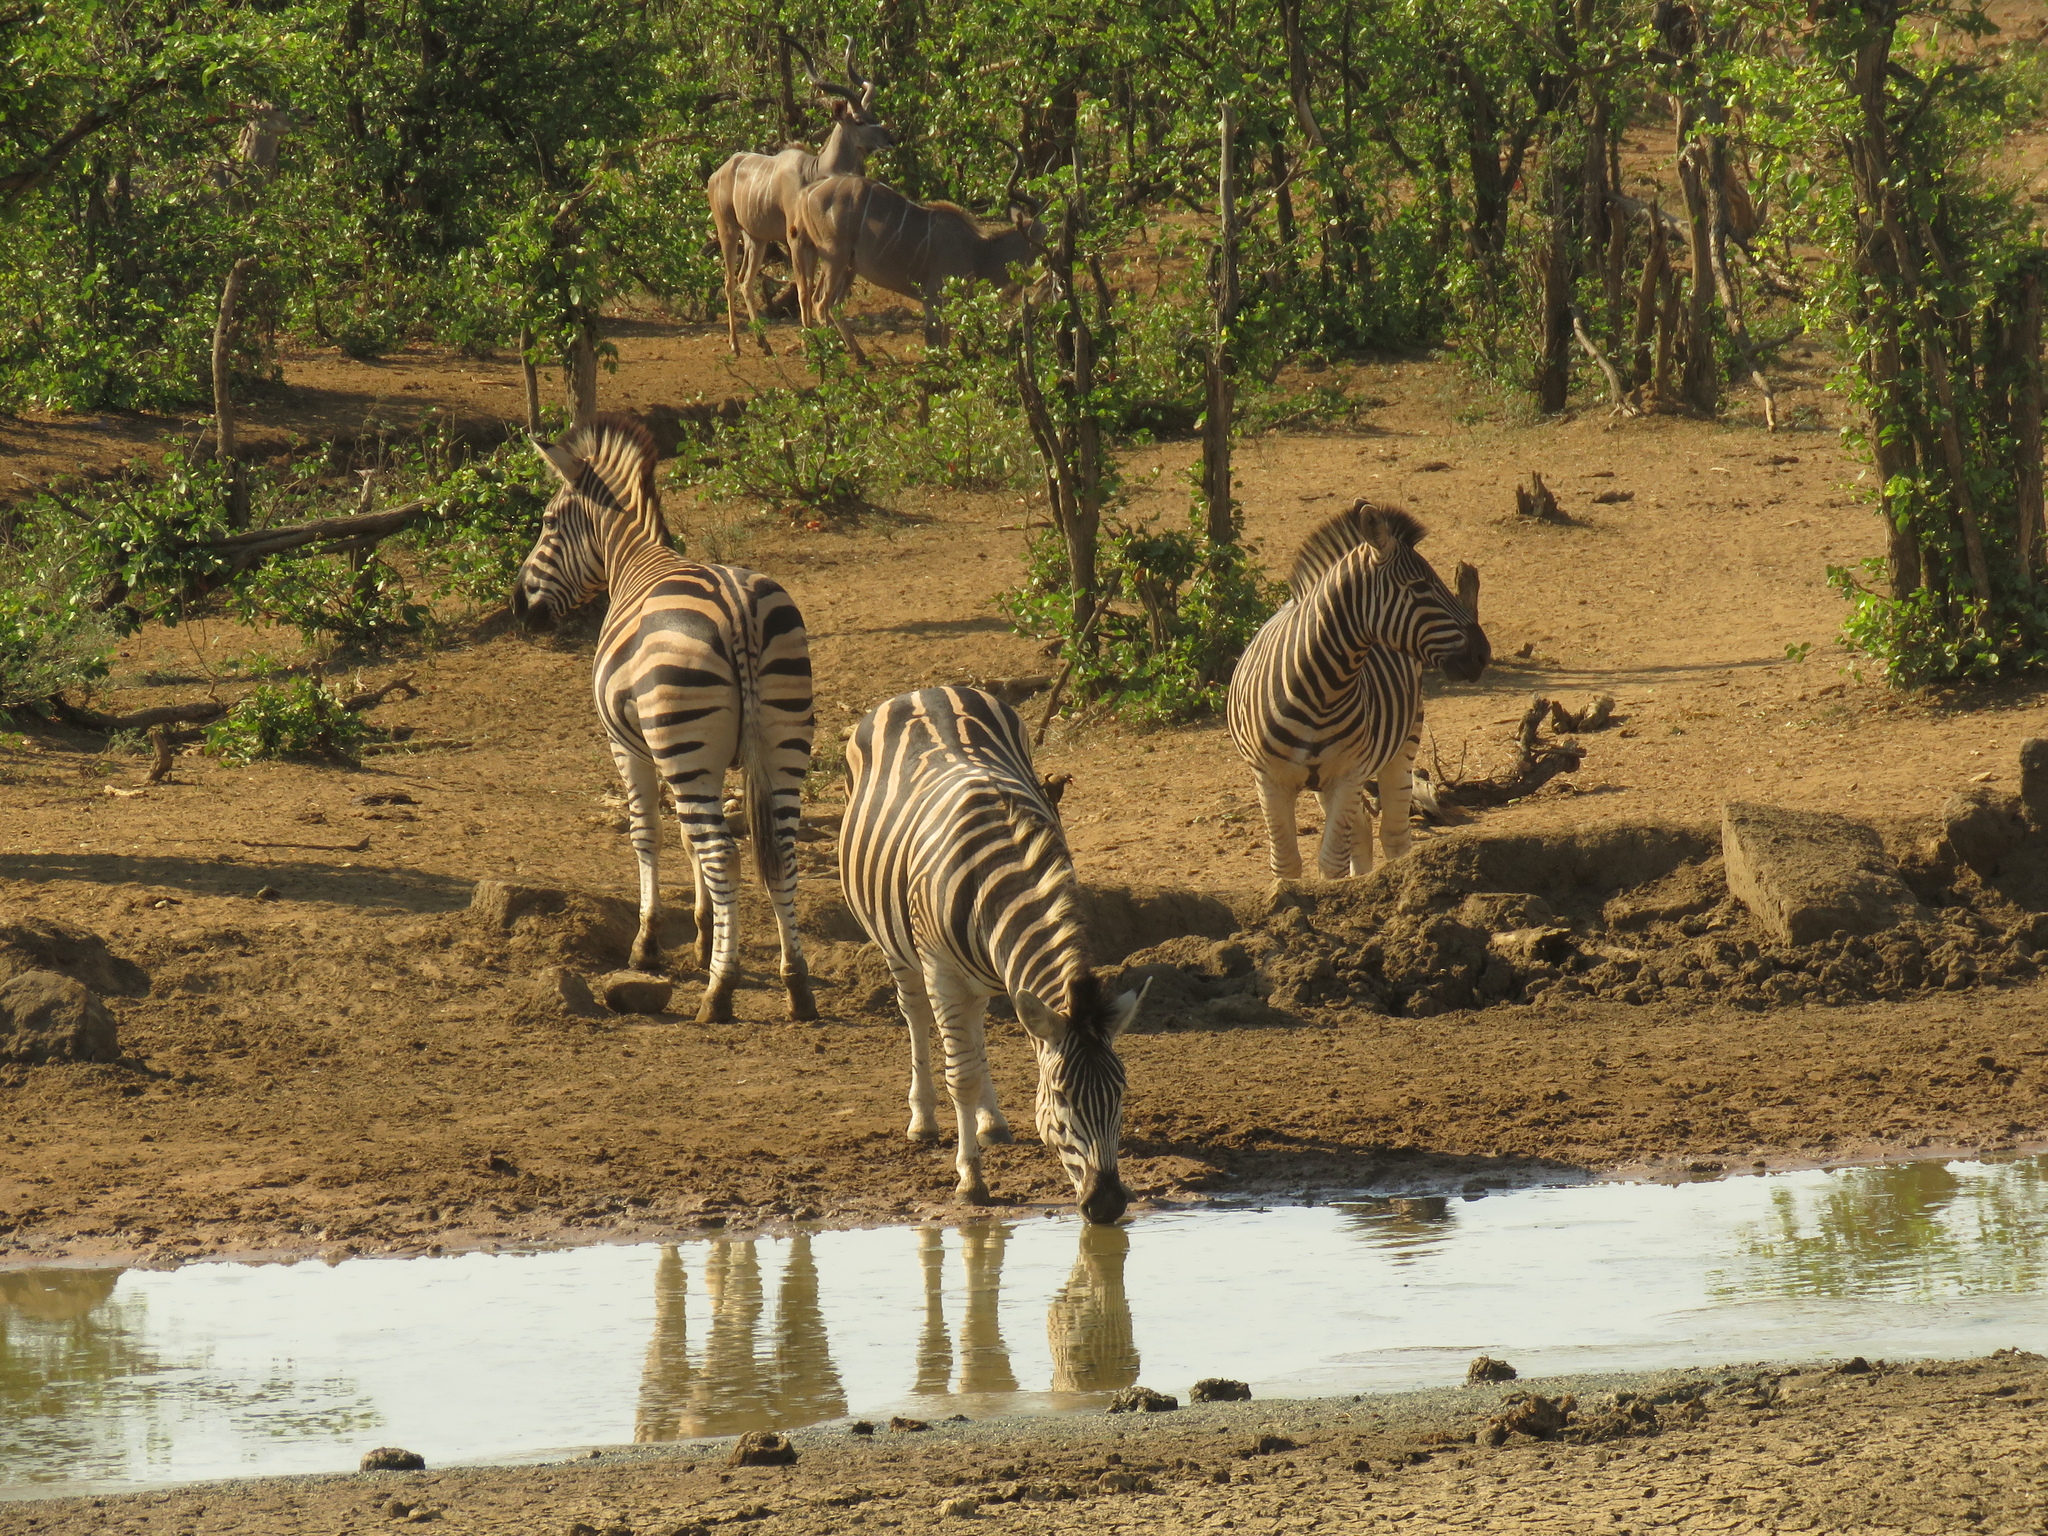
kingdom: Animalia
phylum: Chordata
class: Mammalia
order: Perissodactyla
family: Equidae
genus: Equus
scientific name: Equus quagga
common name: Plains zebra
